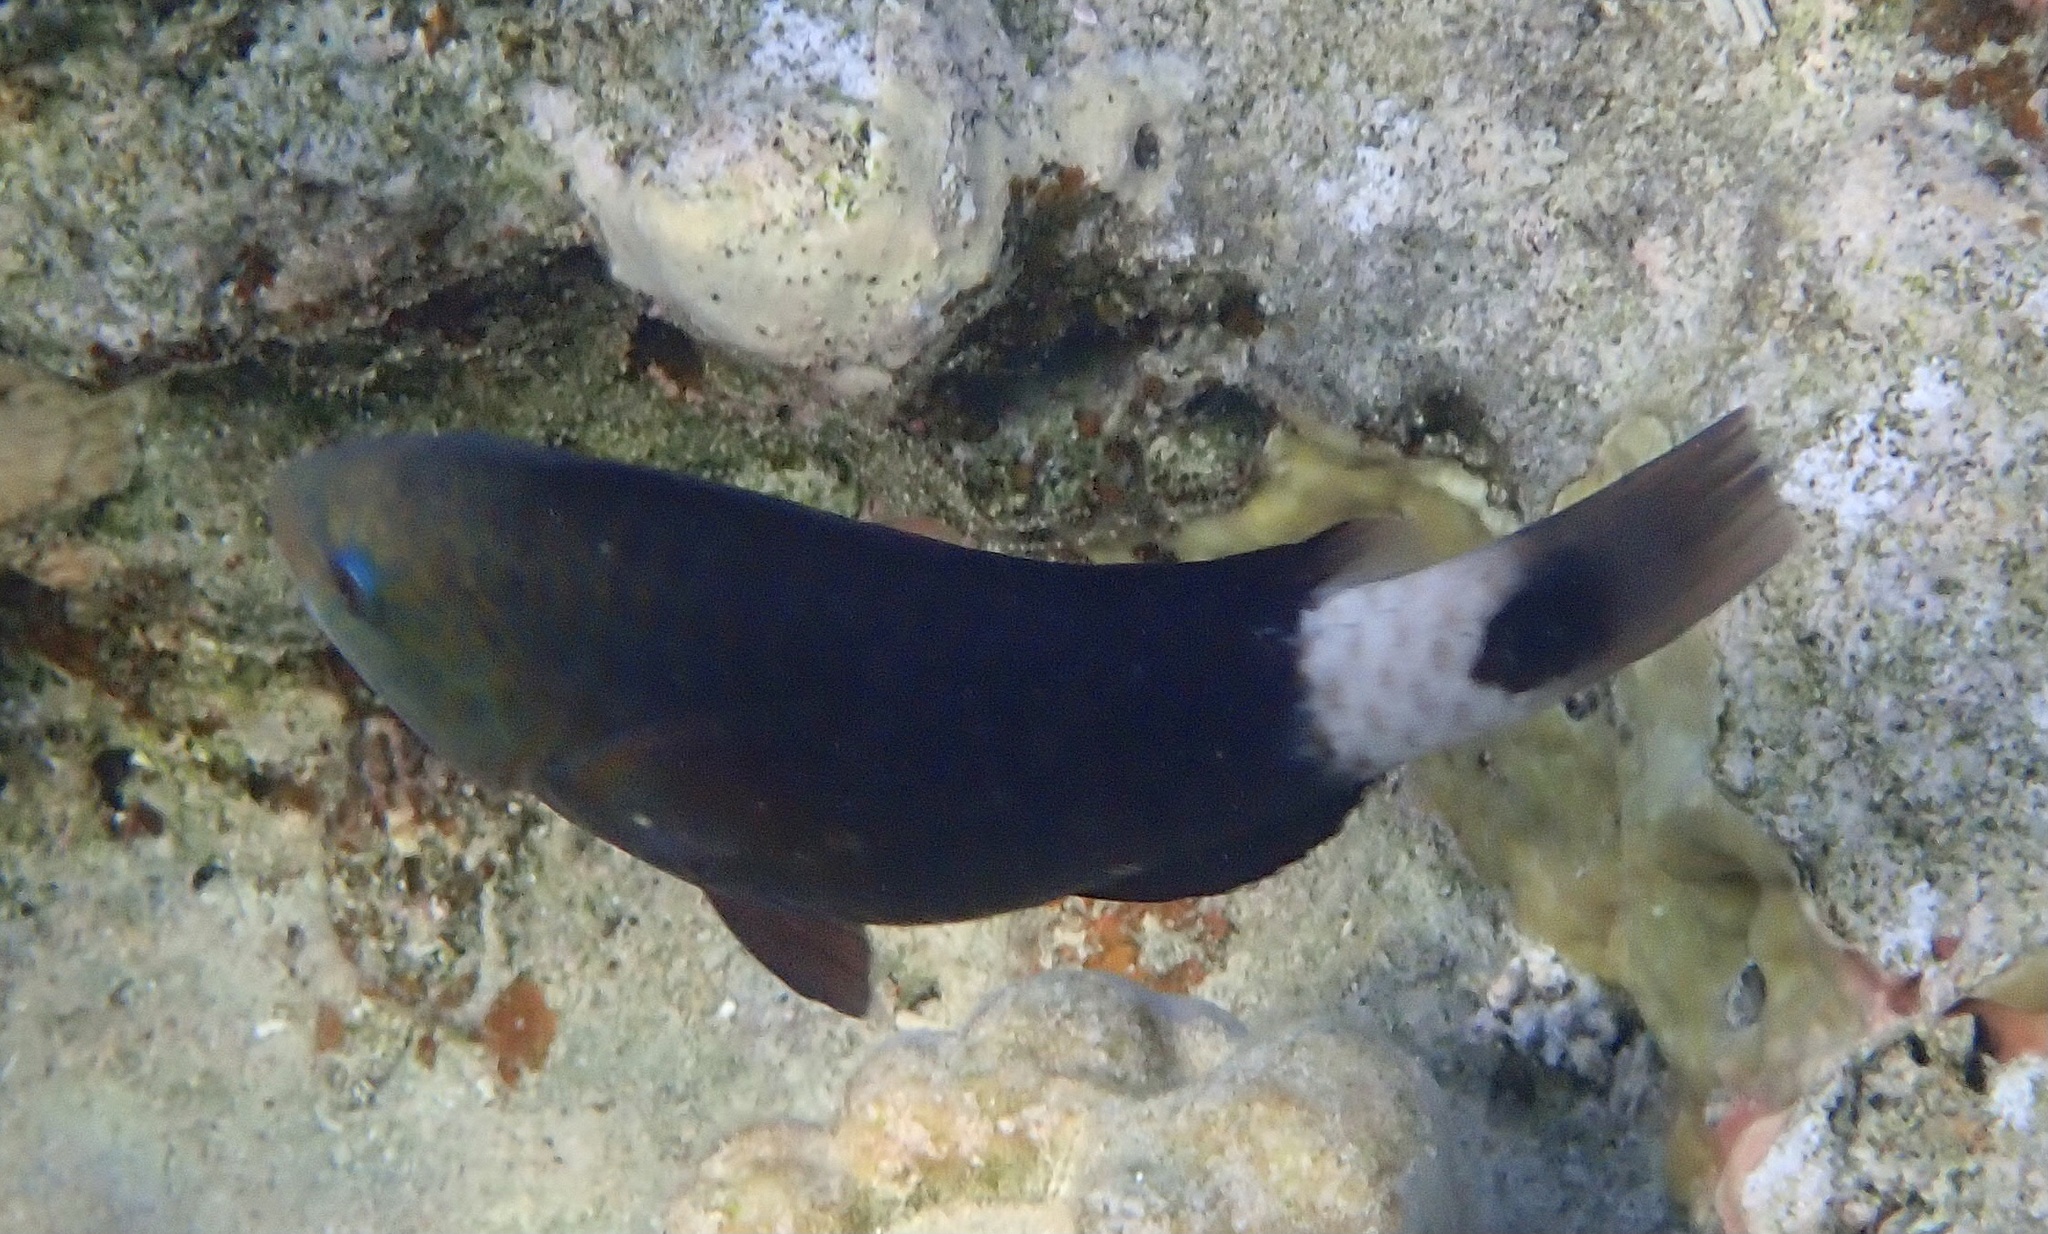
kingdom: Animalia
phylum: Chordata
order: Perciformes
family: Scaridae
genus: Chlorurus
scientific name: Chlorurus sordidus
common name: Bullethead parrotfish
